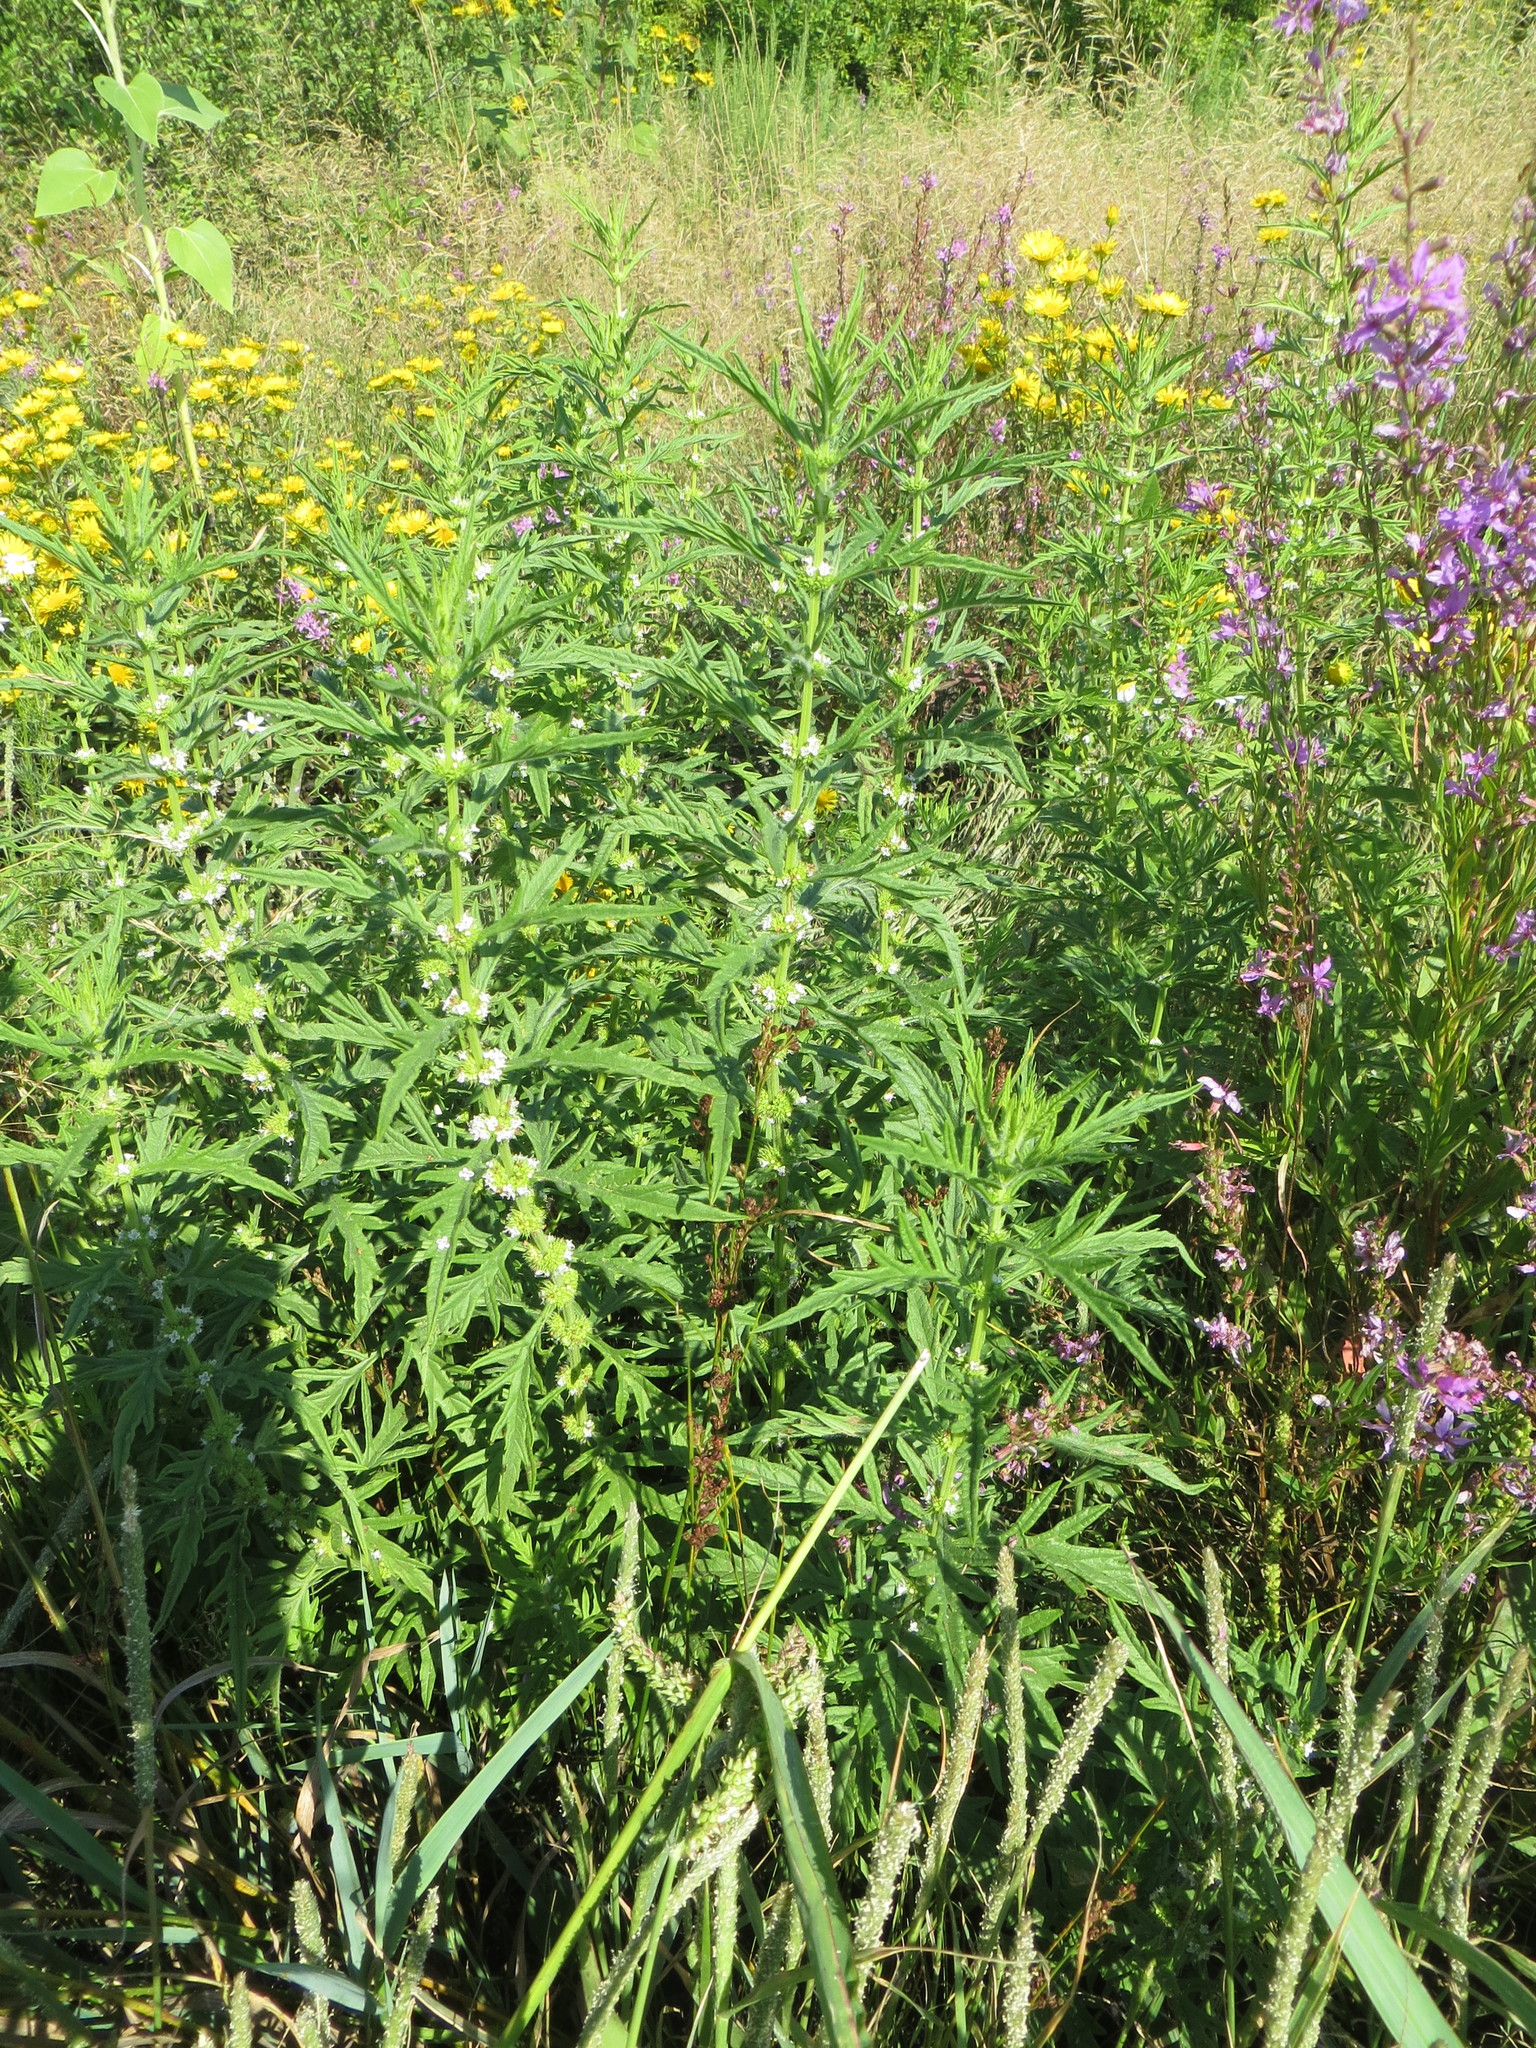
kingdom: Plantae
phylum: Tracheophyta
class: Magnoliopsida
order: Lamiales
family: Lamiaceae
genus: Lycopus
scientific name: Lycopus exaltatus
